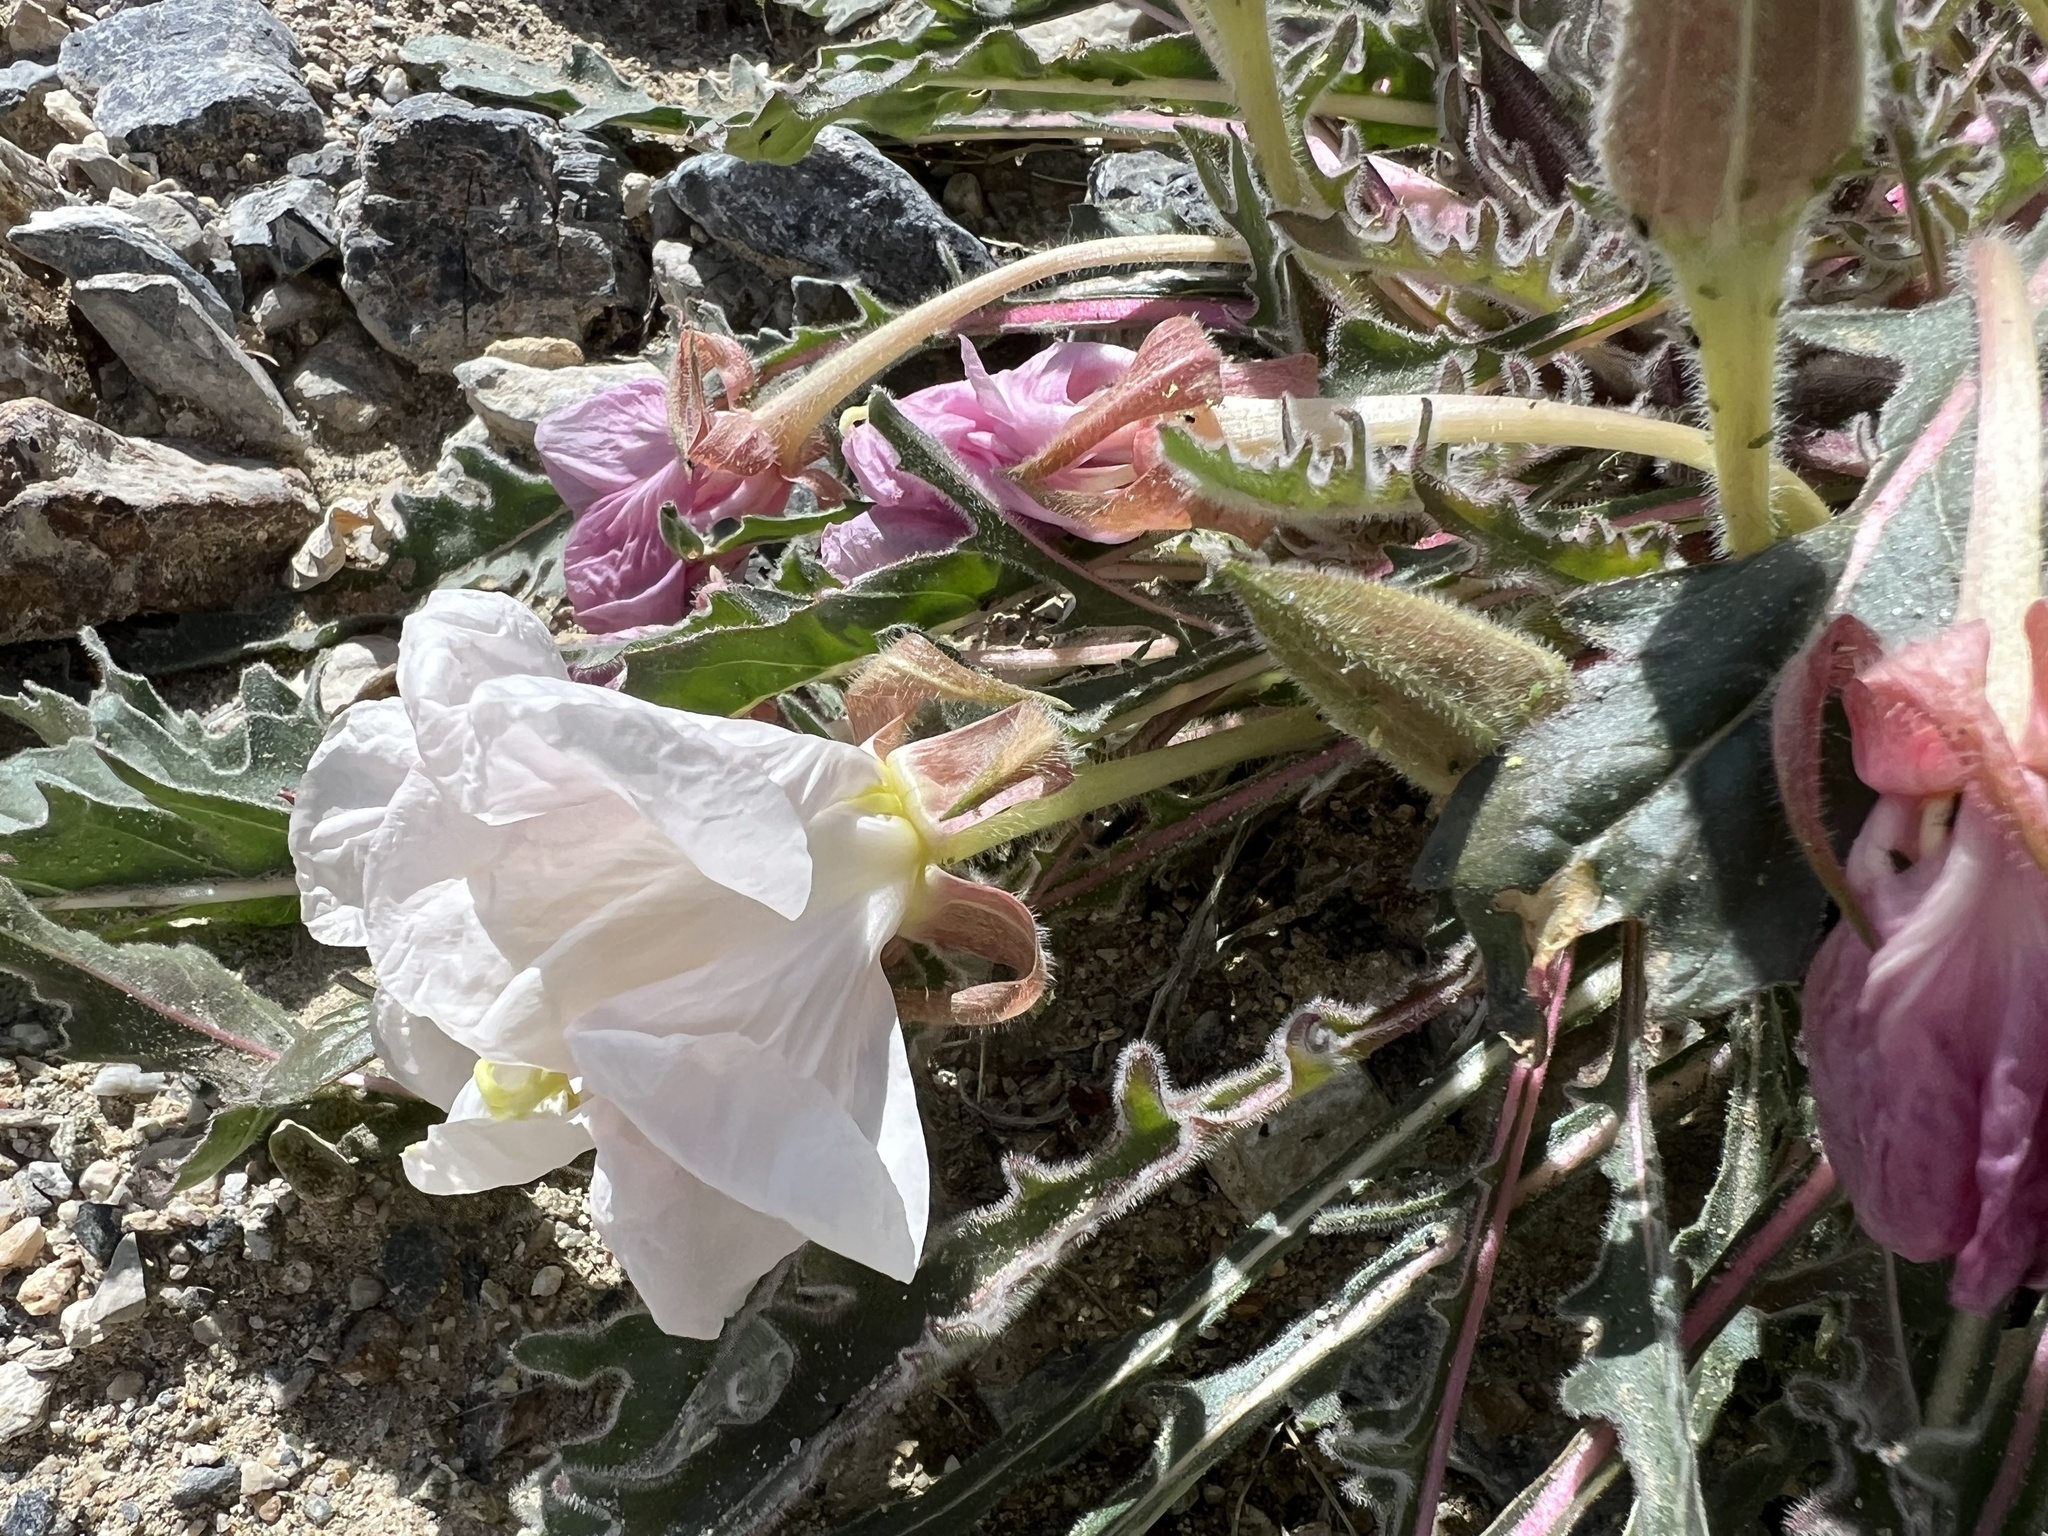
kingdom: Plantae
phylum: Tracheophyta
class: Magnoliopsida
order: Myrtales
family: Onagraceae
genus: Oenothera
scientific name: Oenothera cespitosa
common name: Tufted evening-primrose
